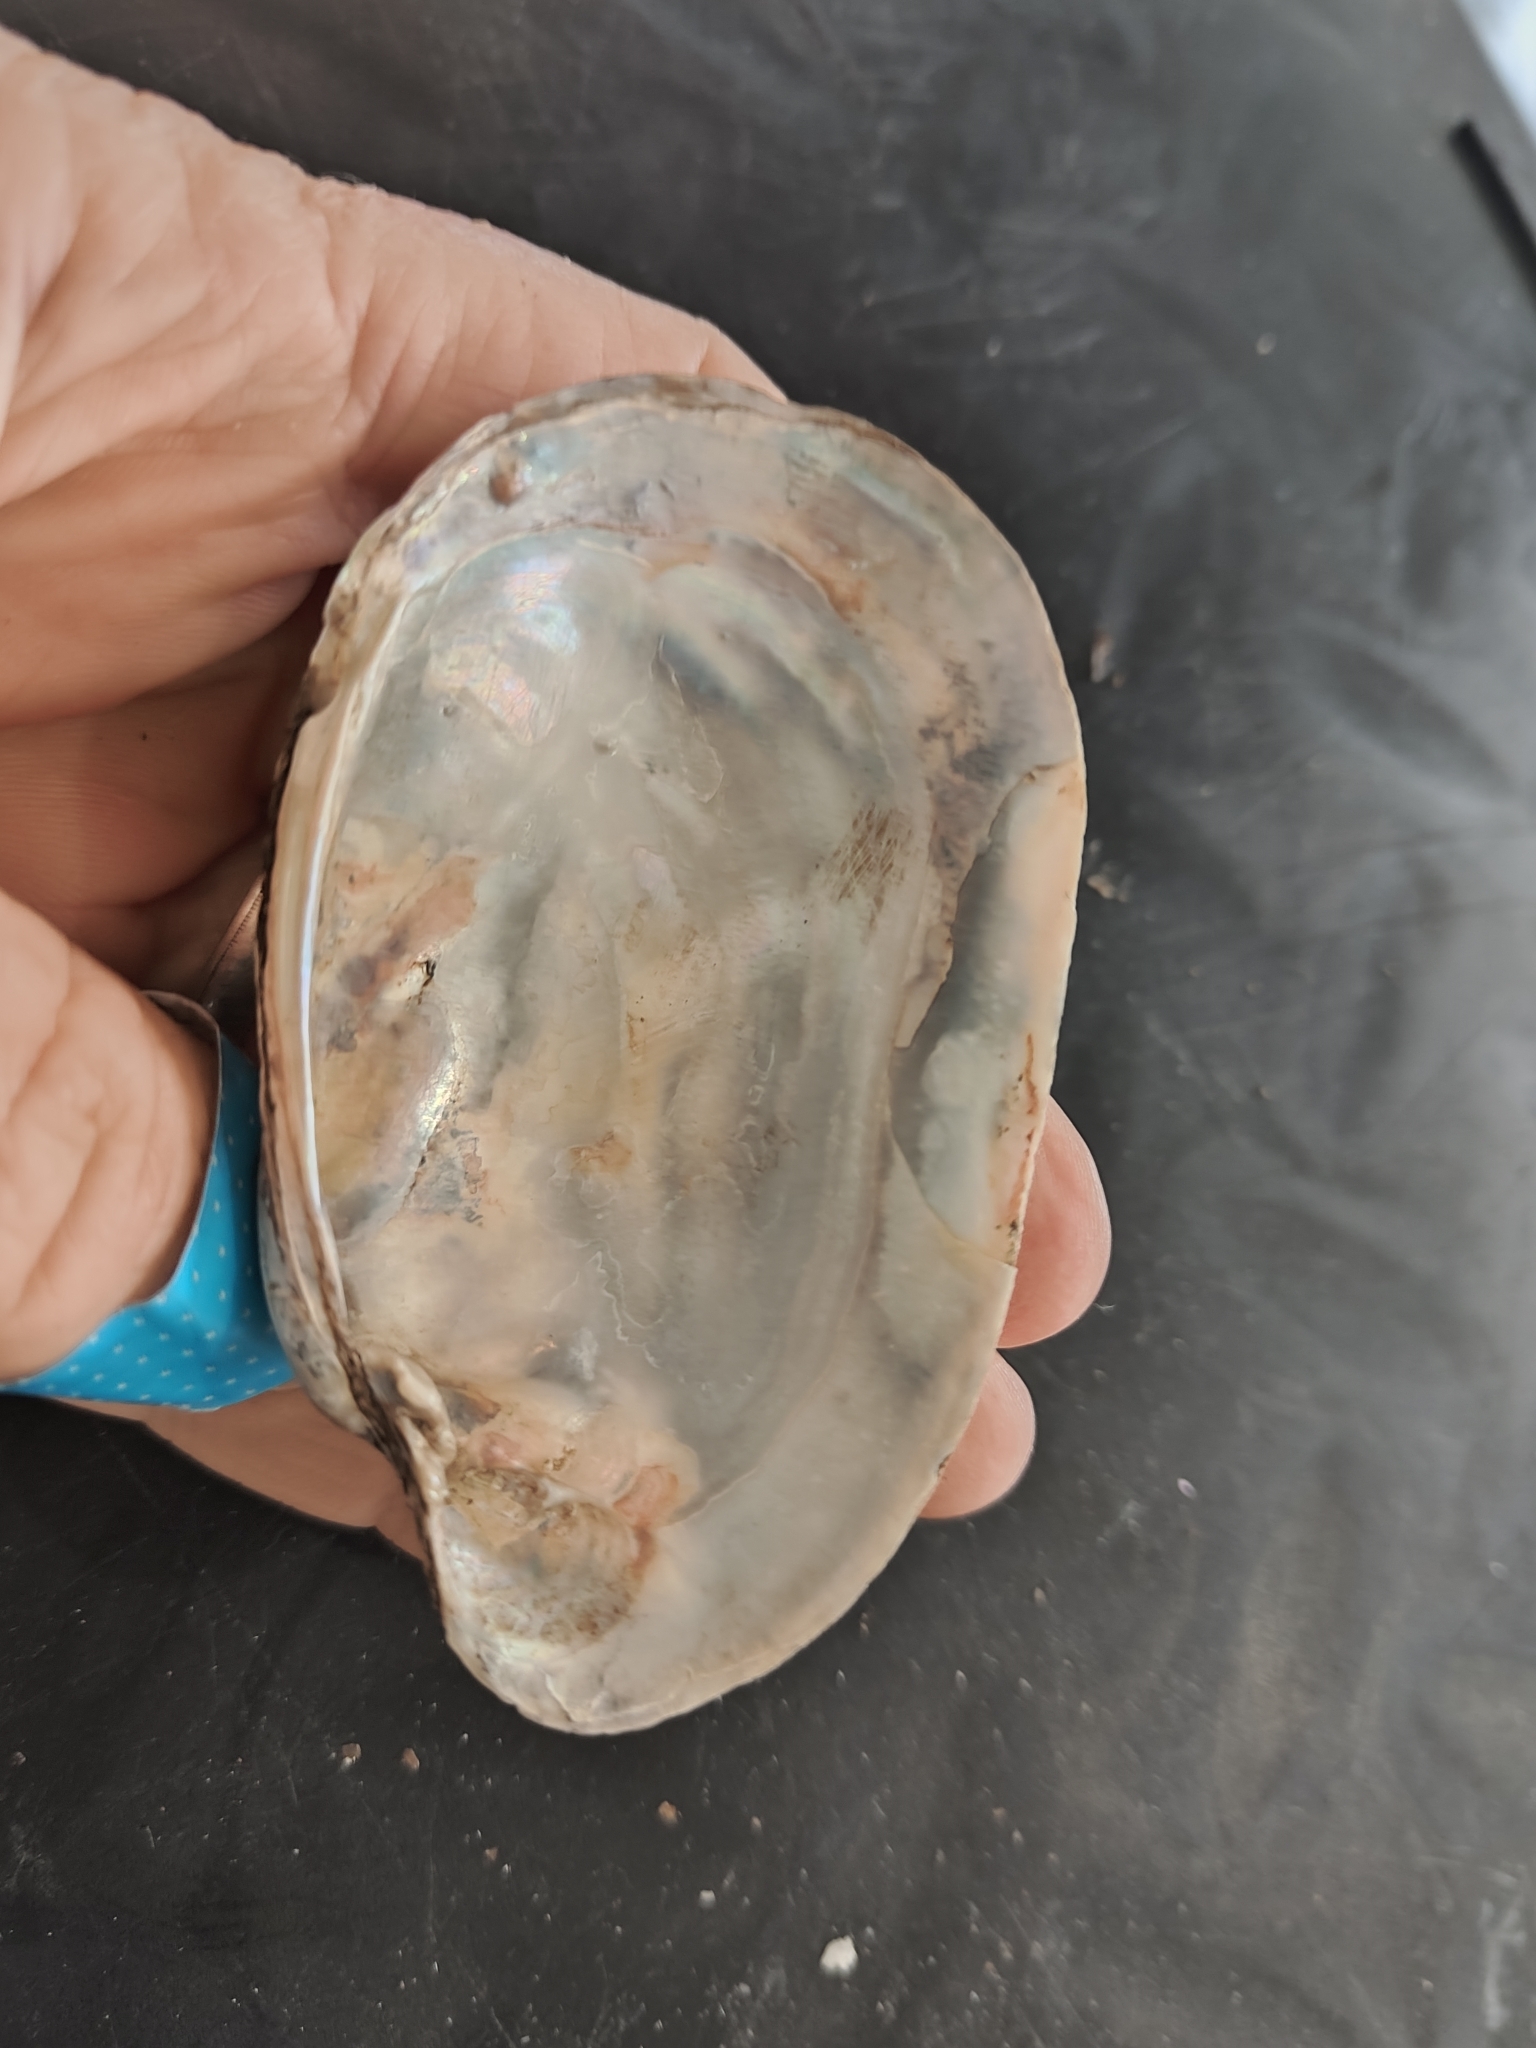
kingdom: Animalia
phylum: Mollusca
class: Bivalvia
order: Unionida
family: Unionidae
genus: Lampsilis
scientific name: Lampsilis siliquoidea
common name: Fatmucket
